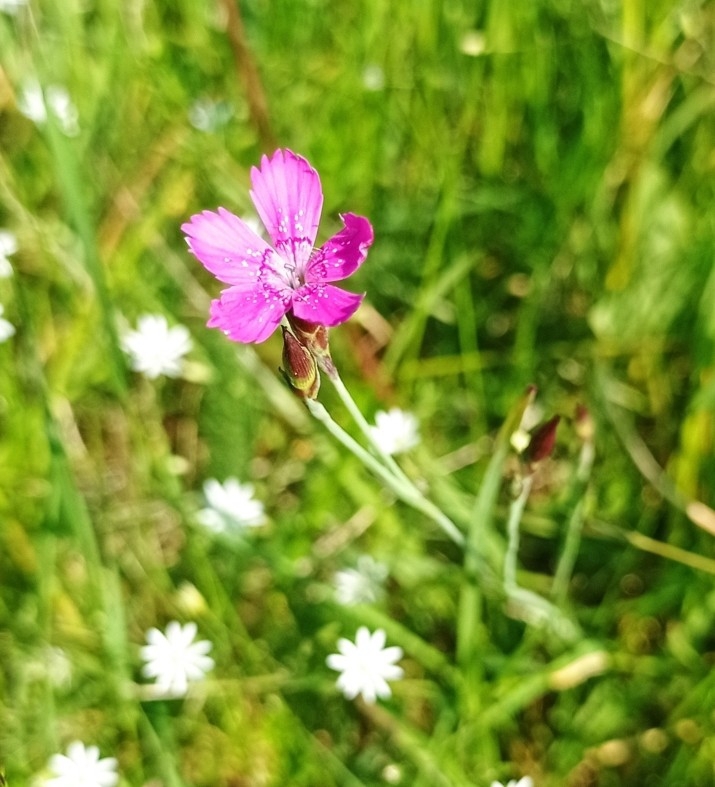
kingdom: Plantae
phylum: Tracheophyta
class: Magnoliopsida
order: Caryophyllales
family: Caryophyllaceae
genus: Dianthus
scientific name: Dianthus deltoides
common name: Maiden pink
